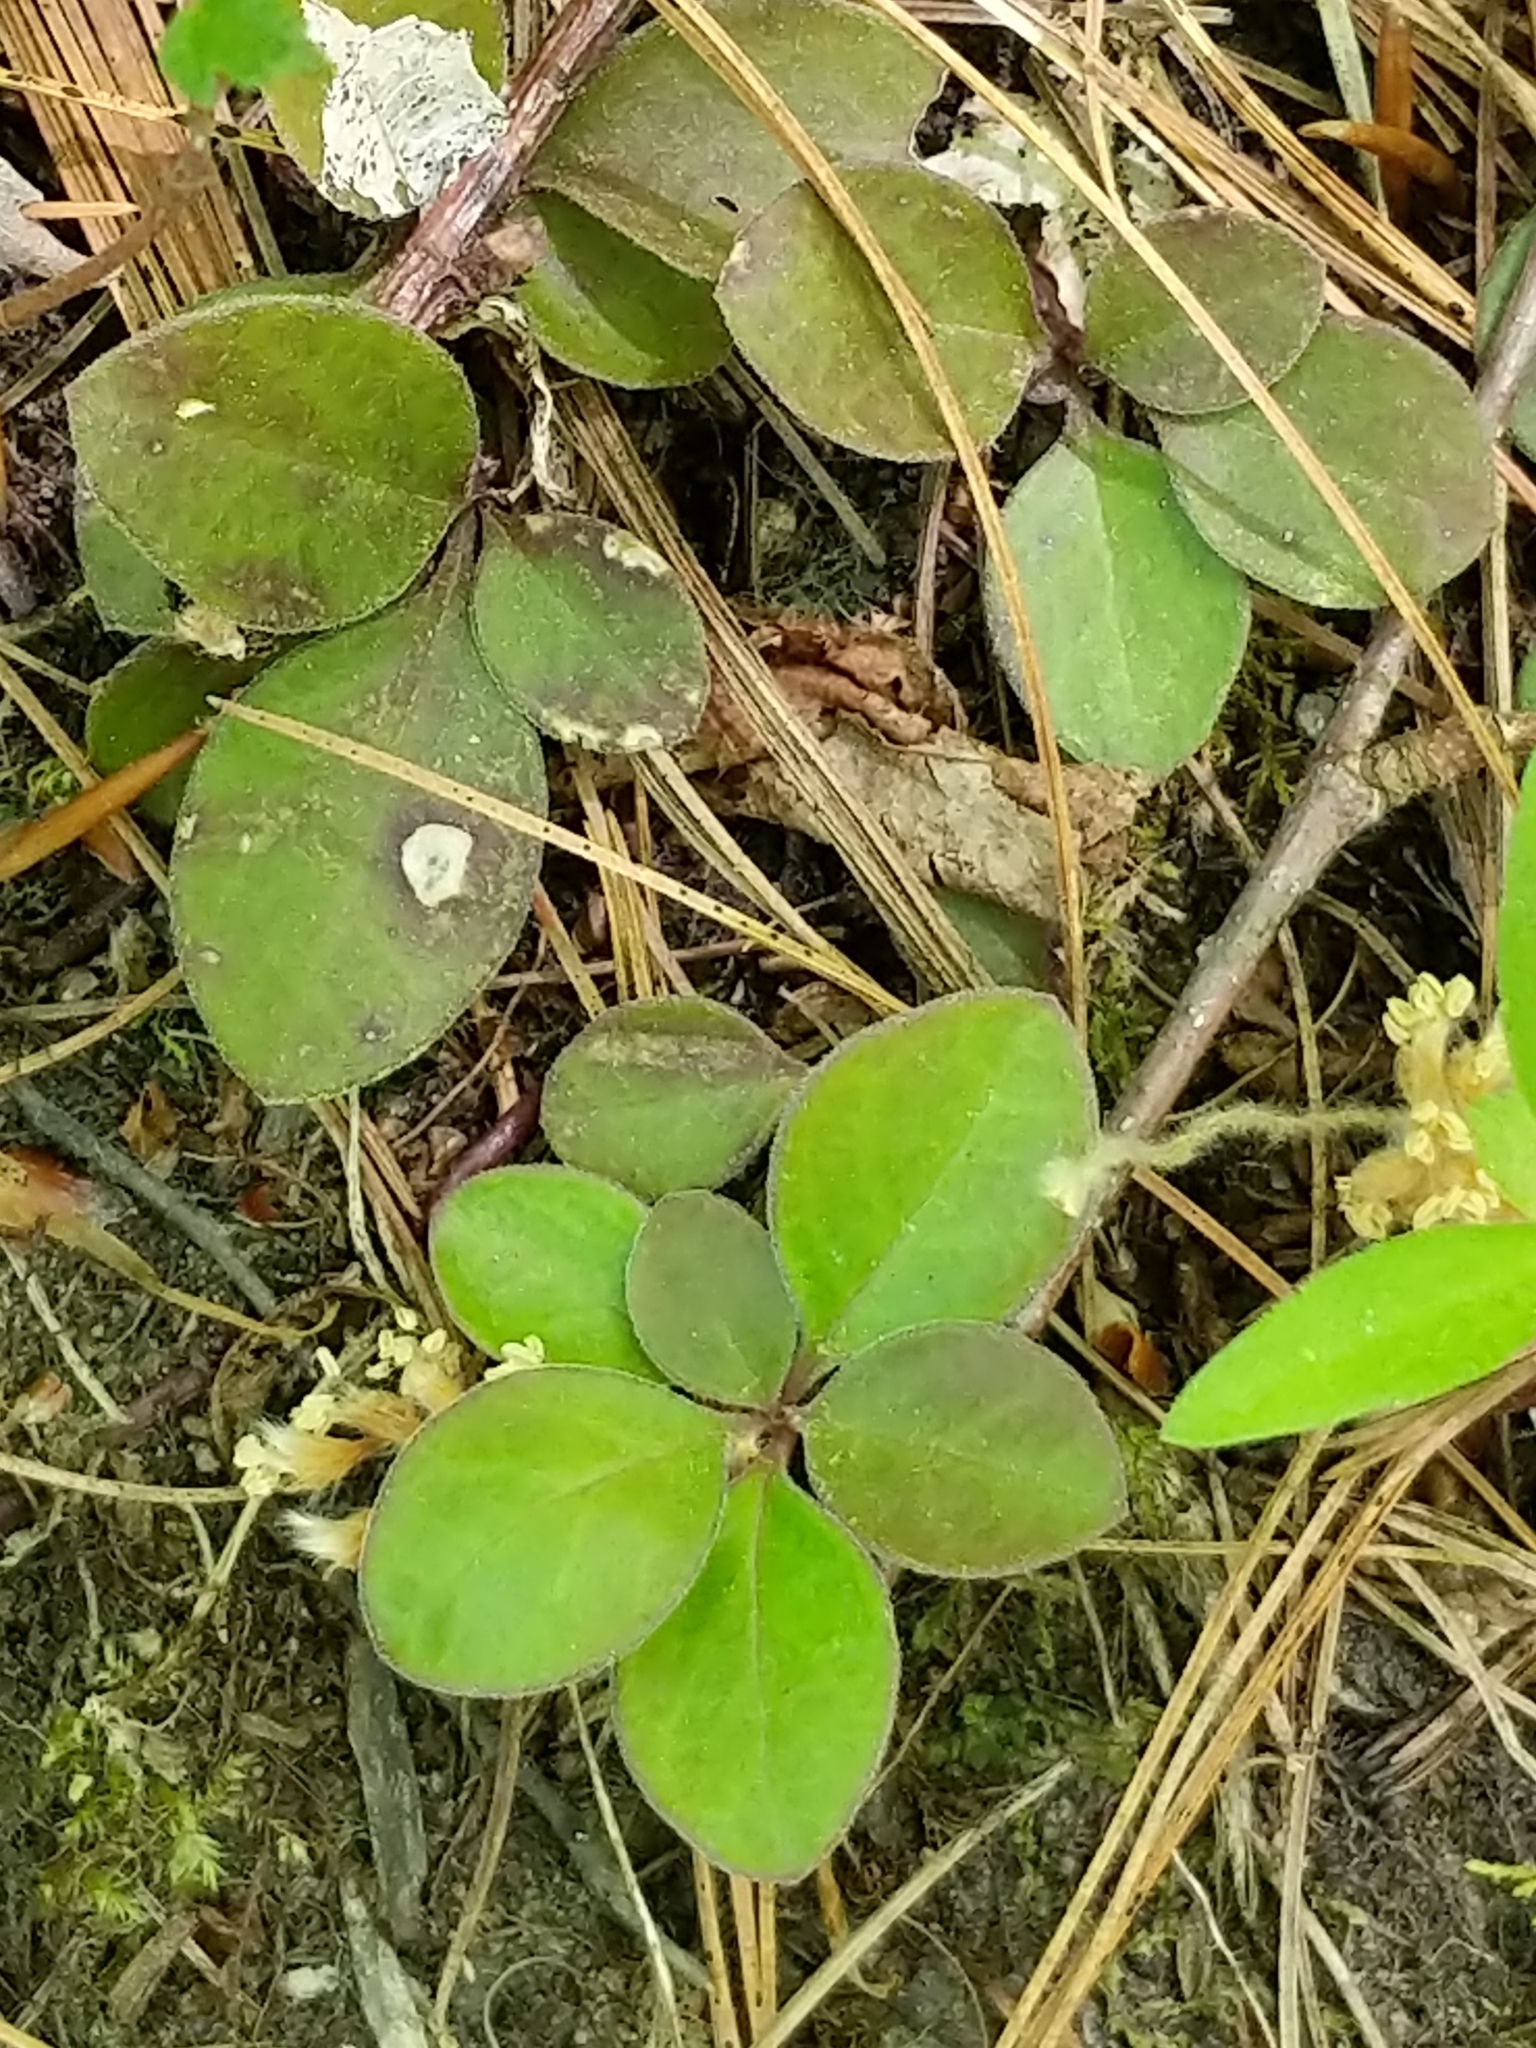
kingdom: Plantae
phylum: Tracheophyta
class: Magnoliopsida
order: Fabales
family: Polygalaceae
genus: Polygaloides
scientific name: Polygaloides paucifolia
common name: Bird-on-the-wing
